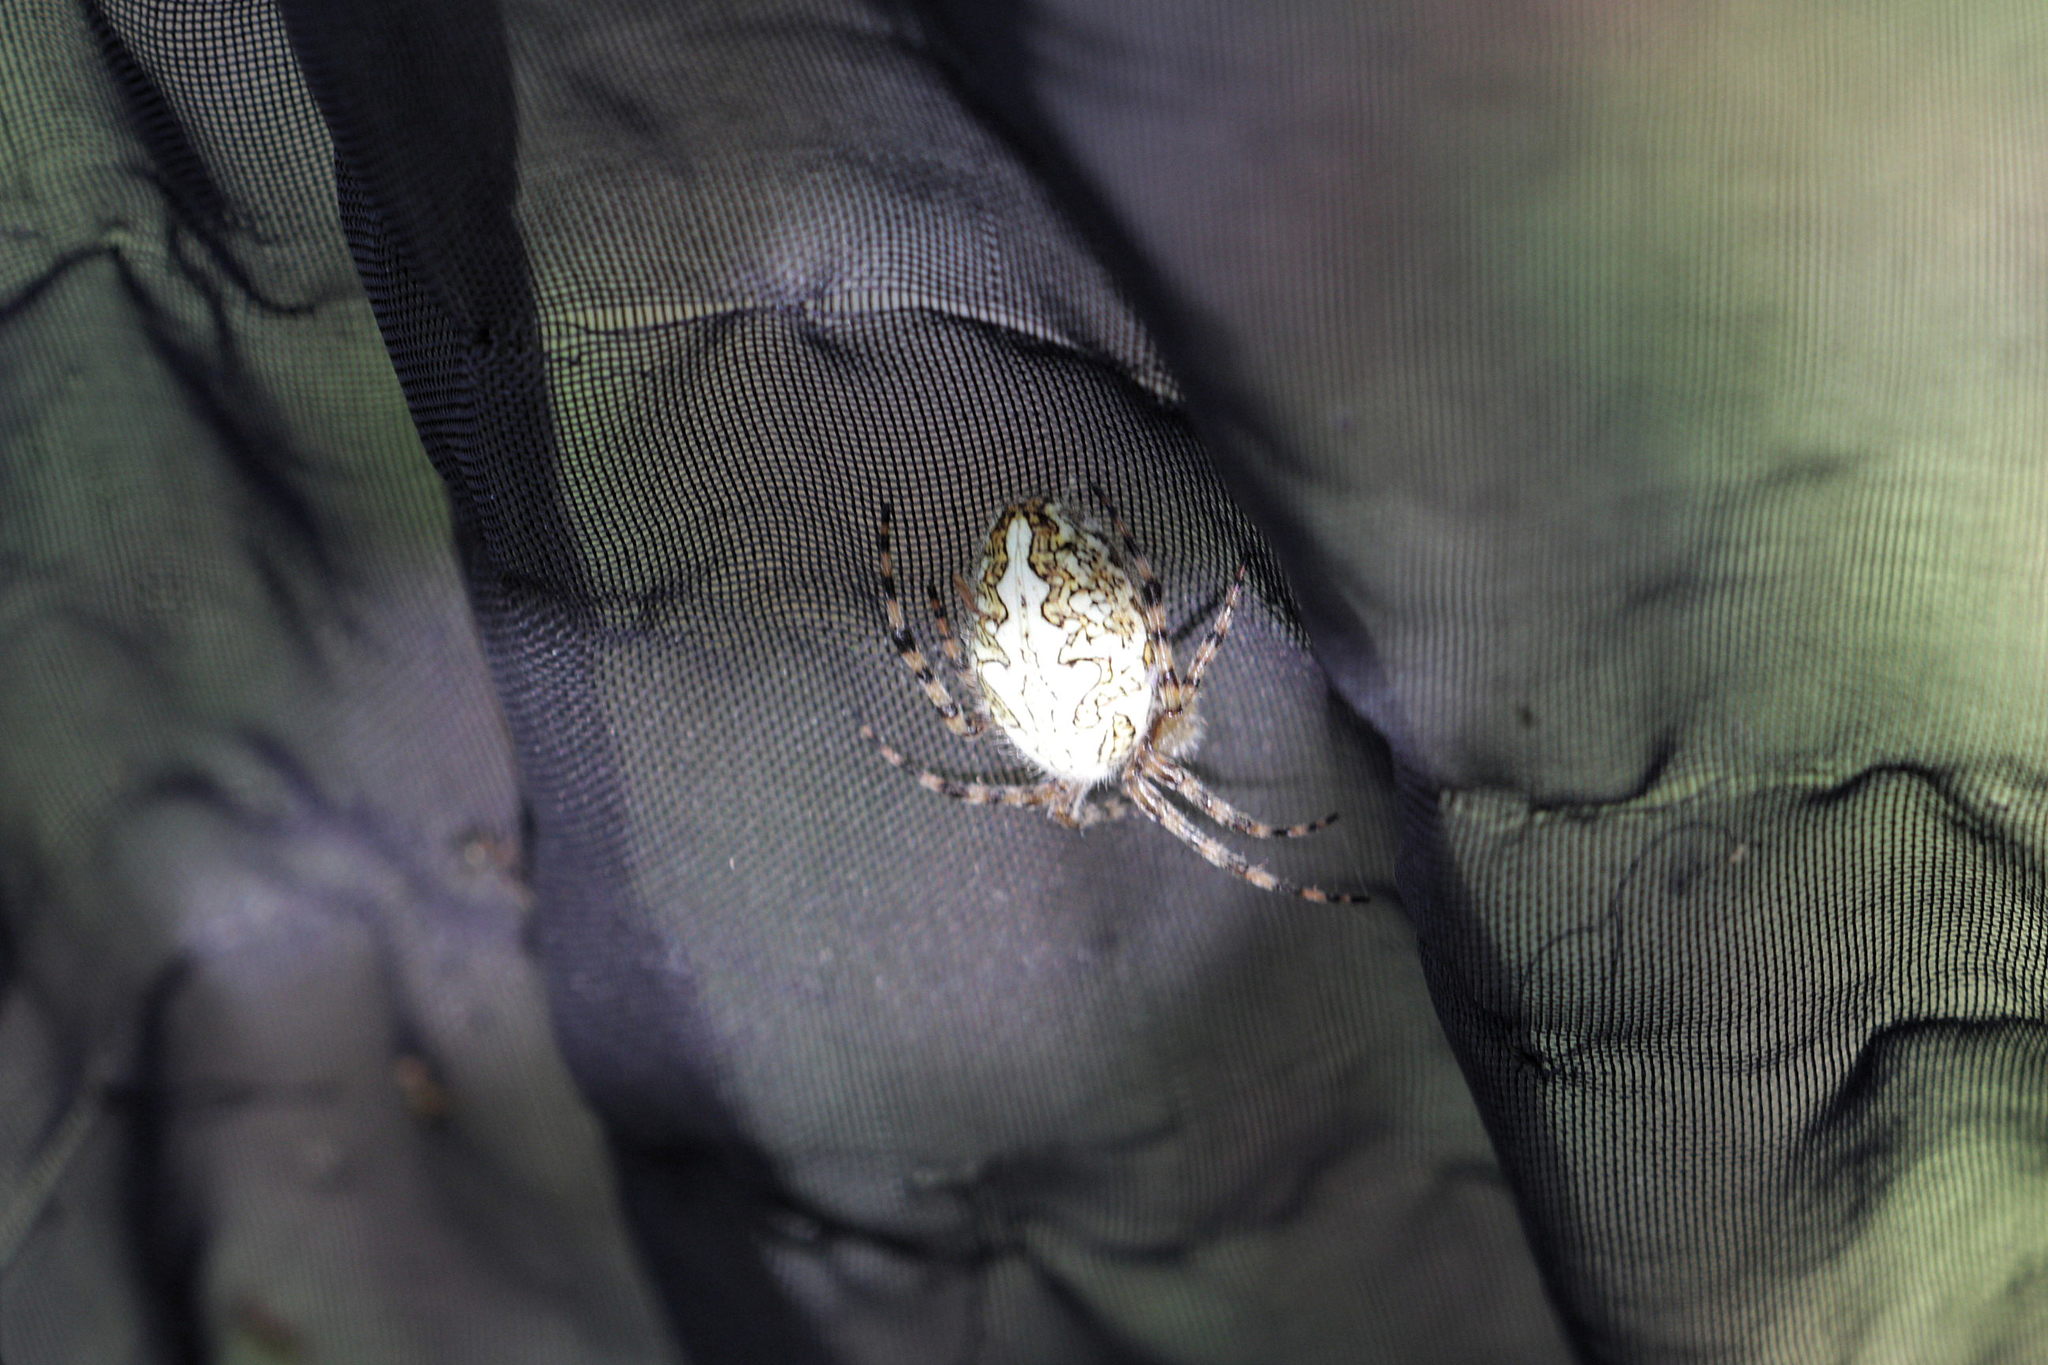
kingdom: Animalia
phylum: Arthropoda
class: Arachnida
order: Araneae
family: Araneidae
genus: Aculepeira
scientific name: Aculepeira ceropegia
